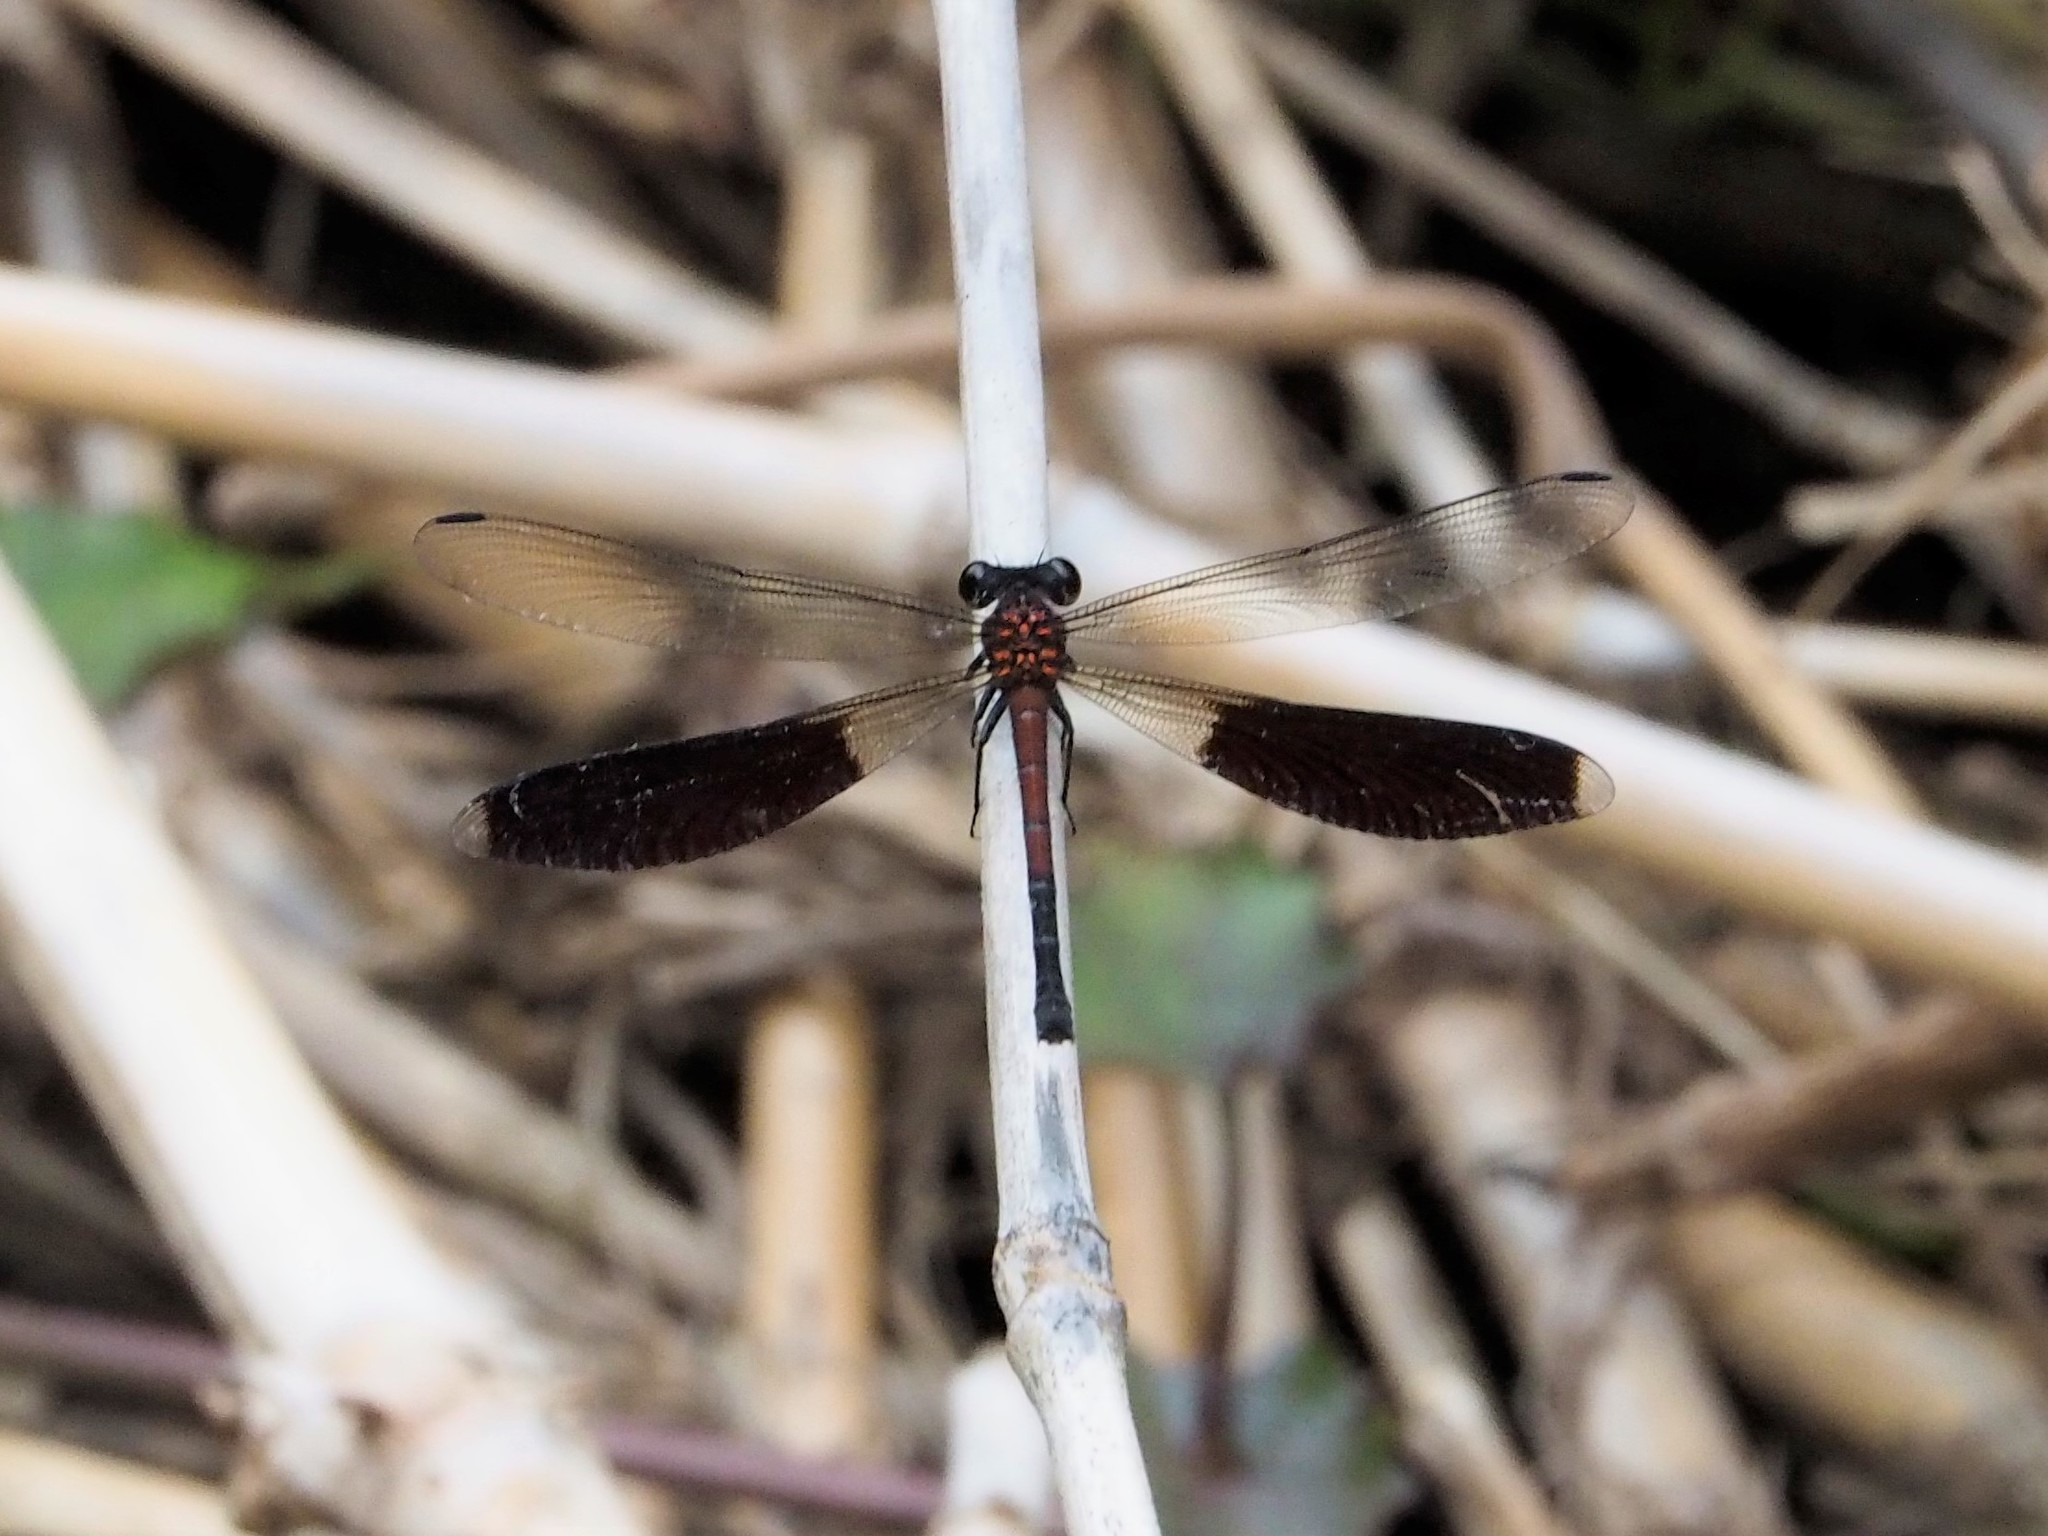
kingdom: Animalia
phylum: Arthropoda
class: Insecta
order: Odonata
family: Euphaeidae
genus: Euphaea
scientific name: Euphaea formosa
